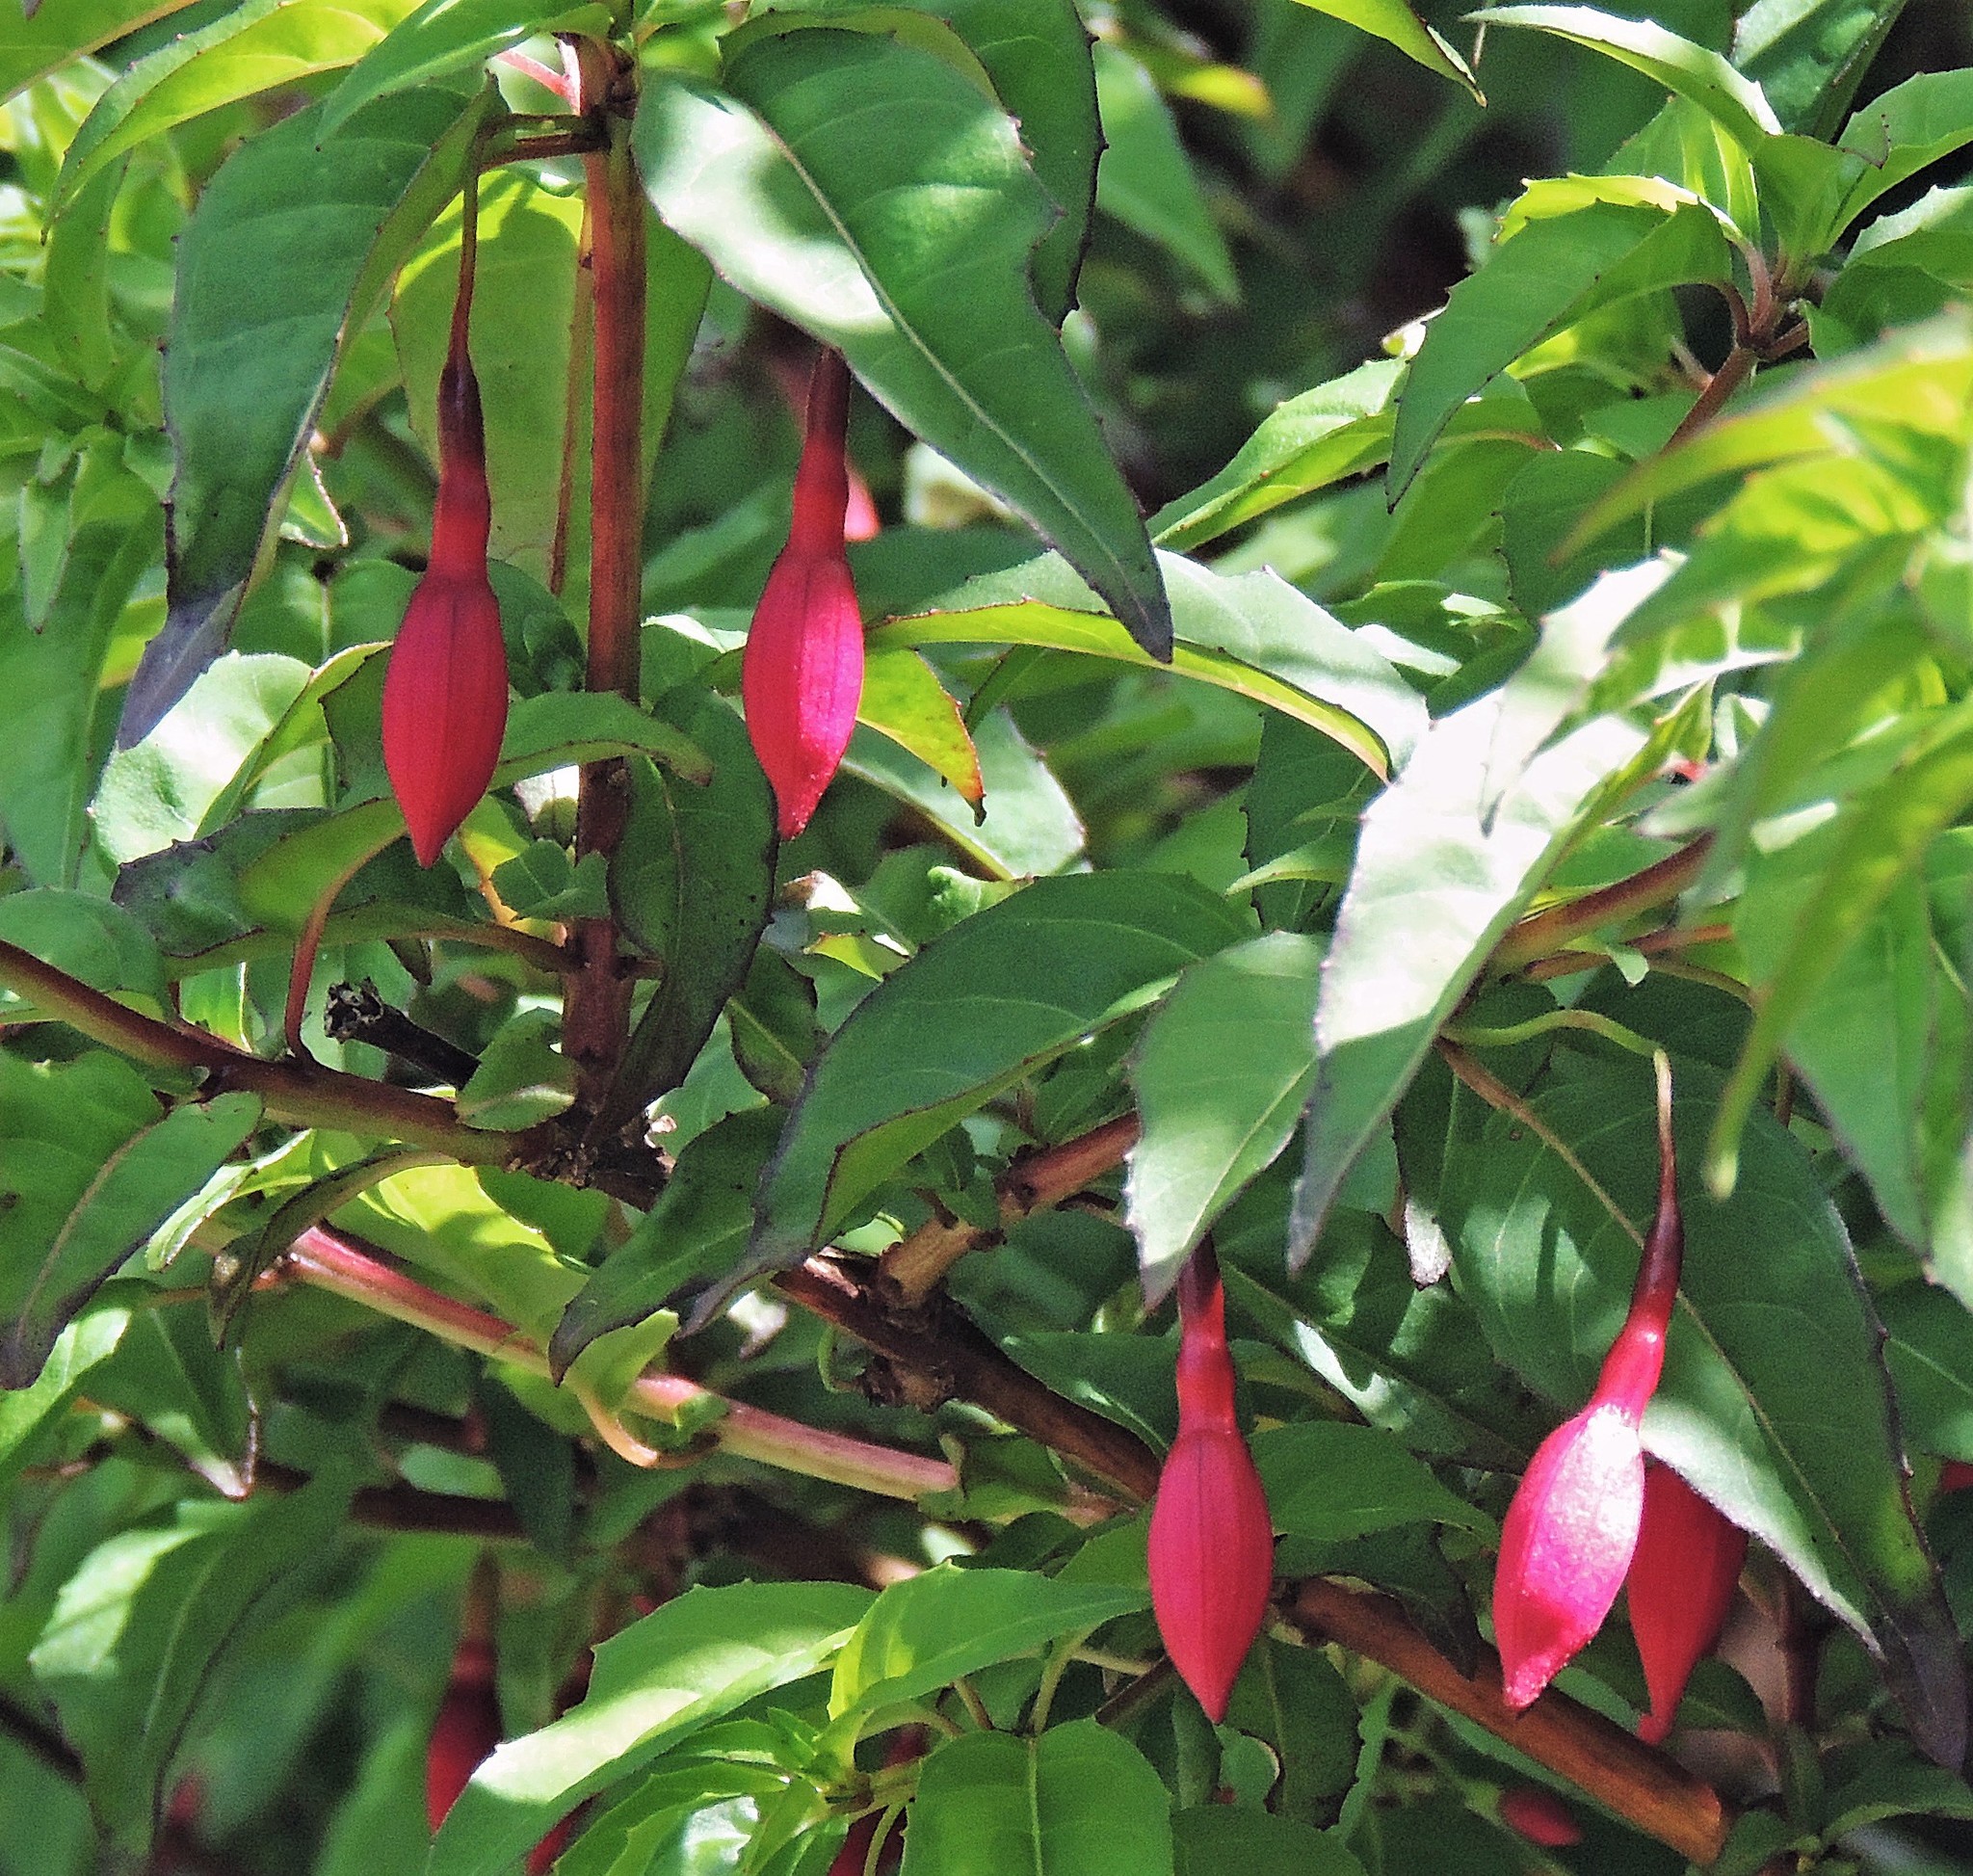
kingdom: Plantae
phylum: Tracheophyta
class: Magnoliopsida
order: Myrtales
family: Onagraceae
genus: Fuchsia
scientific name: Fuchsia magellanica
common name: Hardy fuchsia
